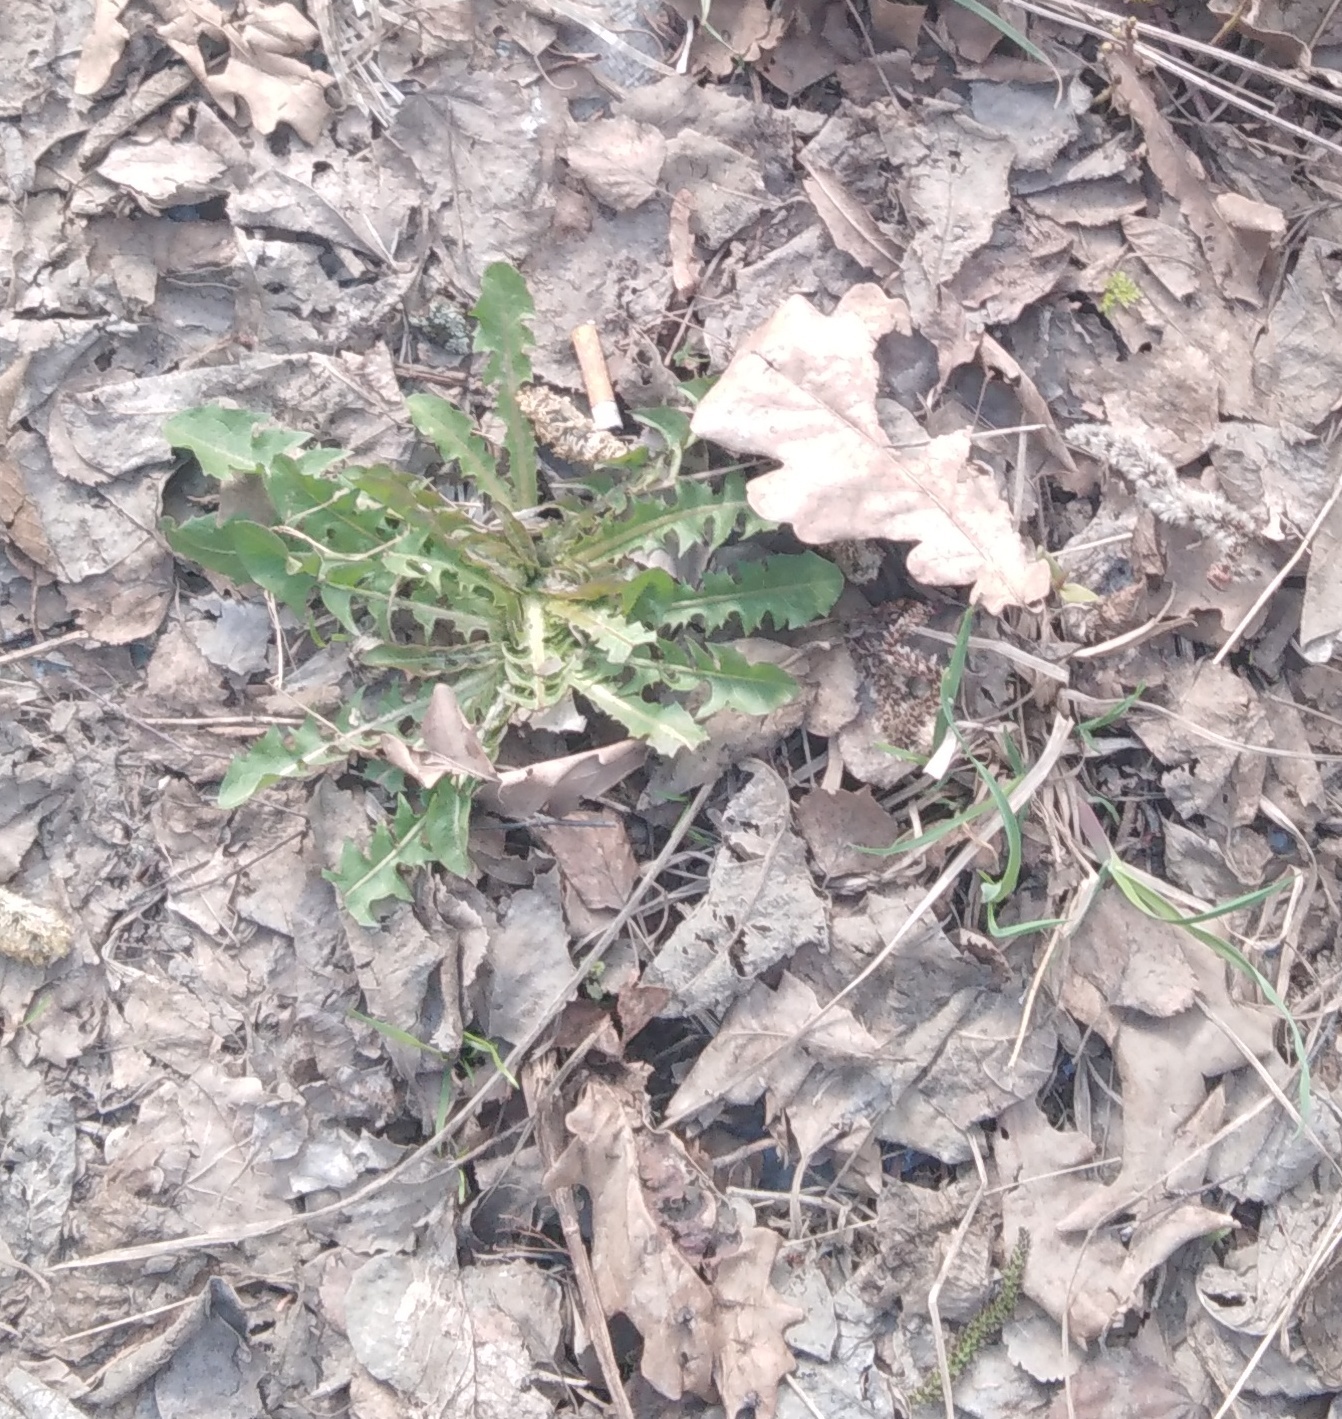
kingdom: Plantae
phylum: Tracheophyta
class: Magnoliopsida
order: Asterales
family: Asteraceae
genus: Taraxacum
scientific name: Taraxacum officinale
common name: Common dandelion
